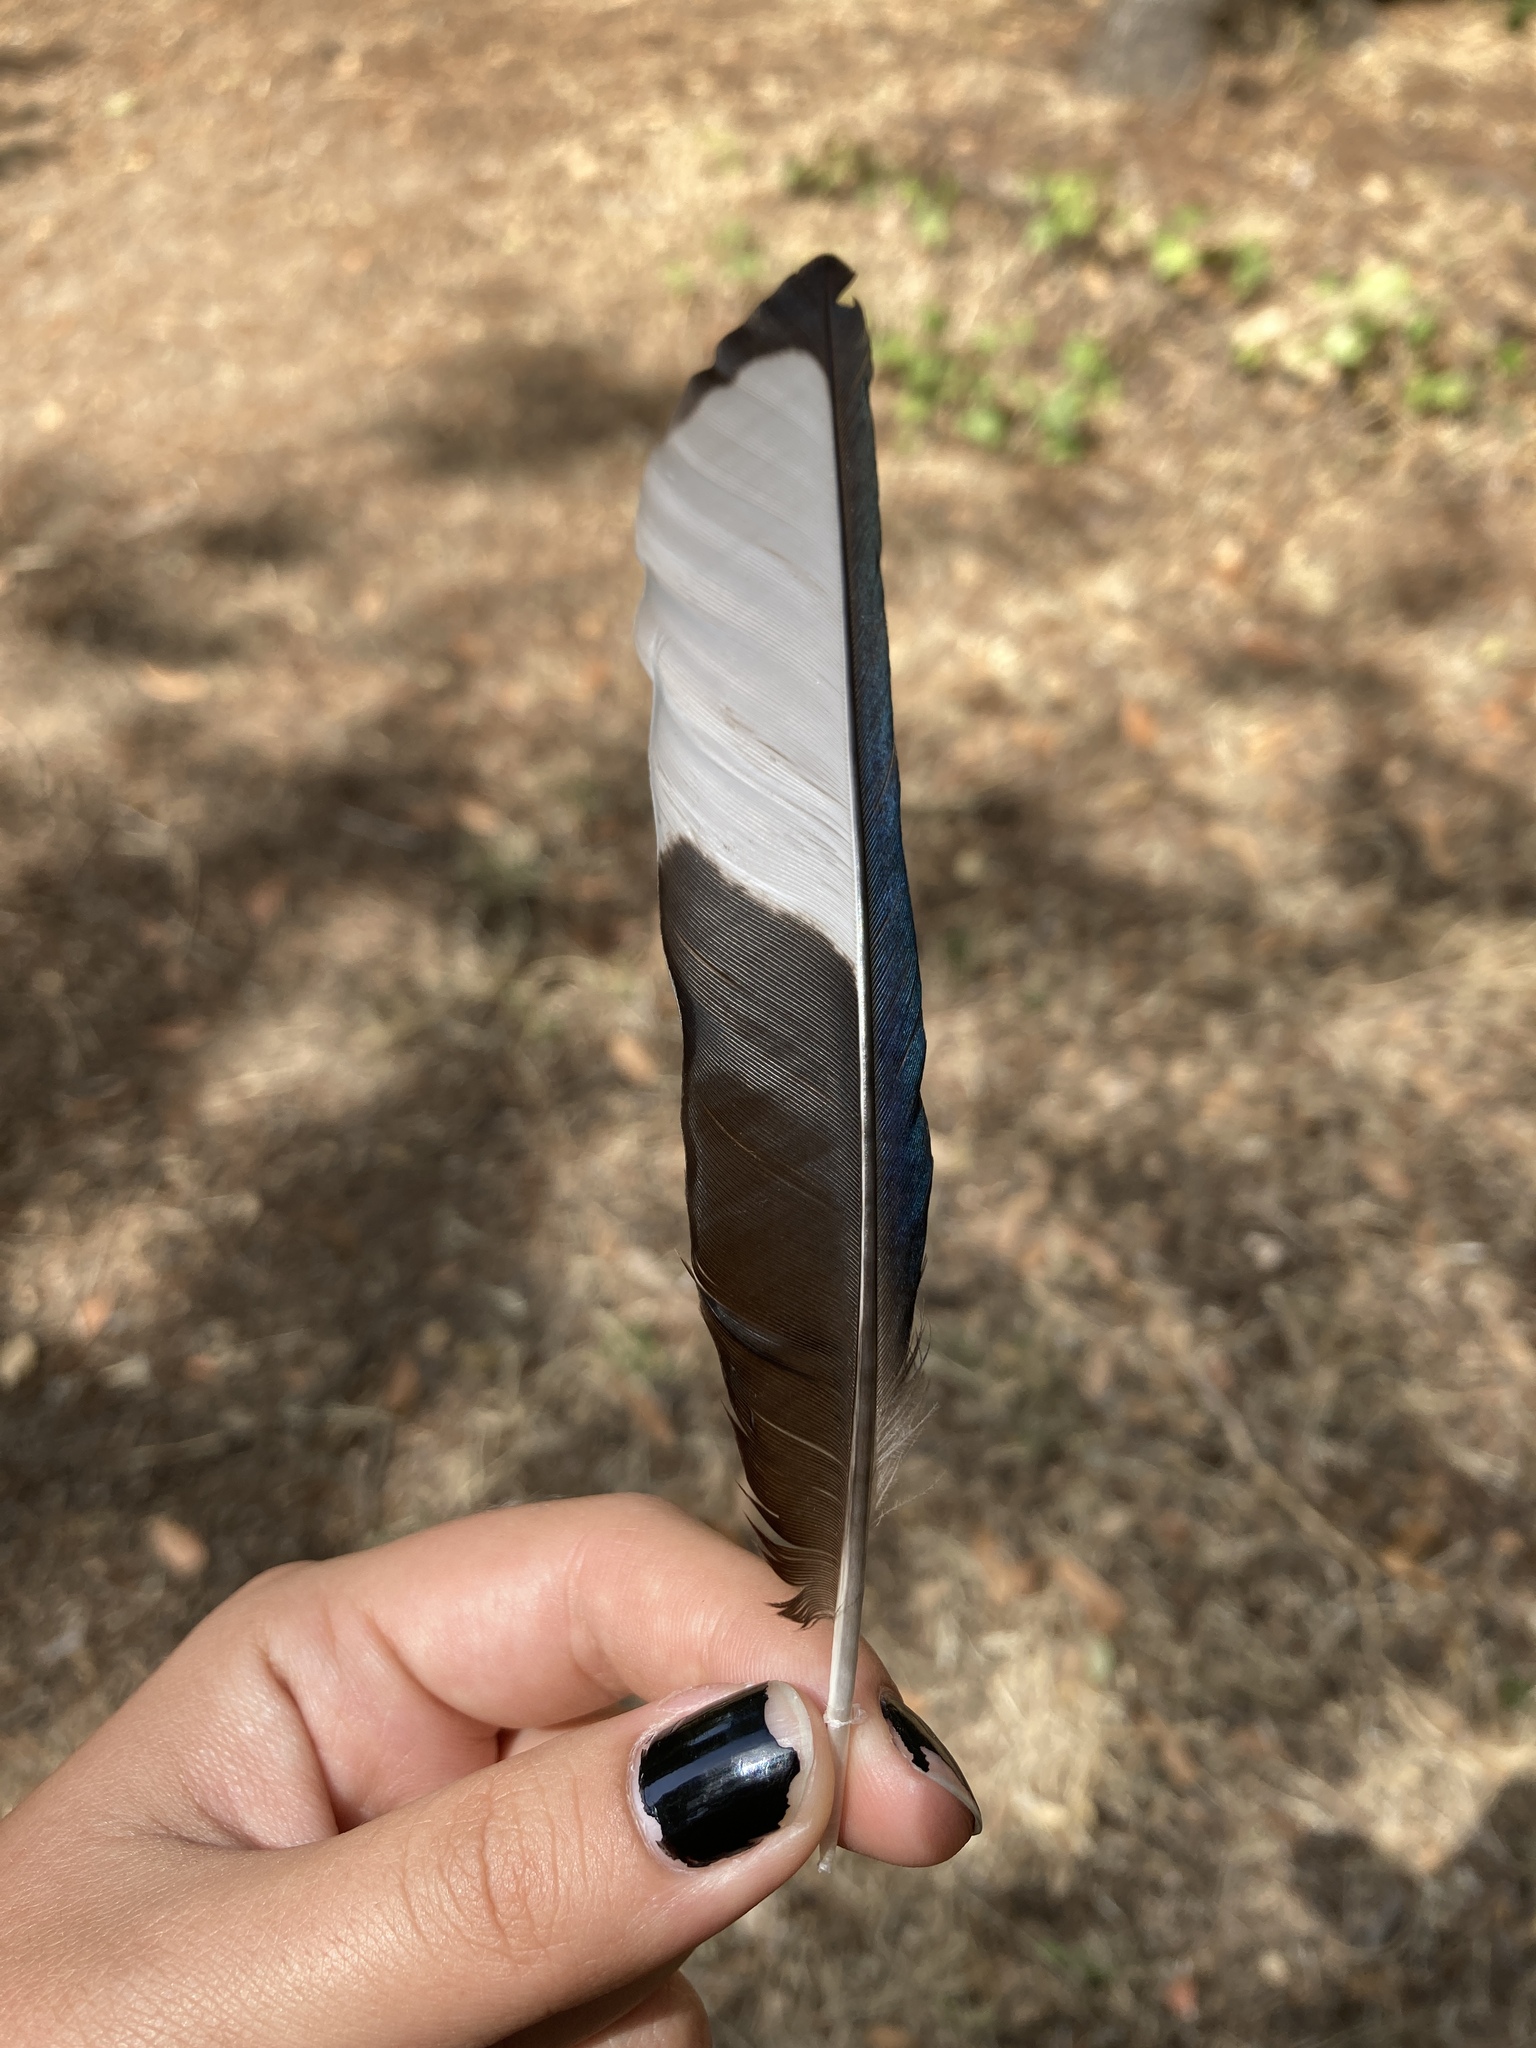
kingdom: Animalia
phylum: Chordata
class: Aves
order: Passeriformes
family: Corvidae
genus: Pica
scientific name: Pica pica
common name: Eurasian magpie
